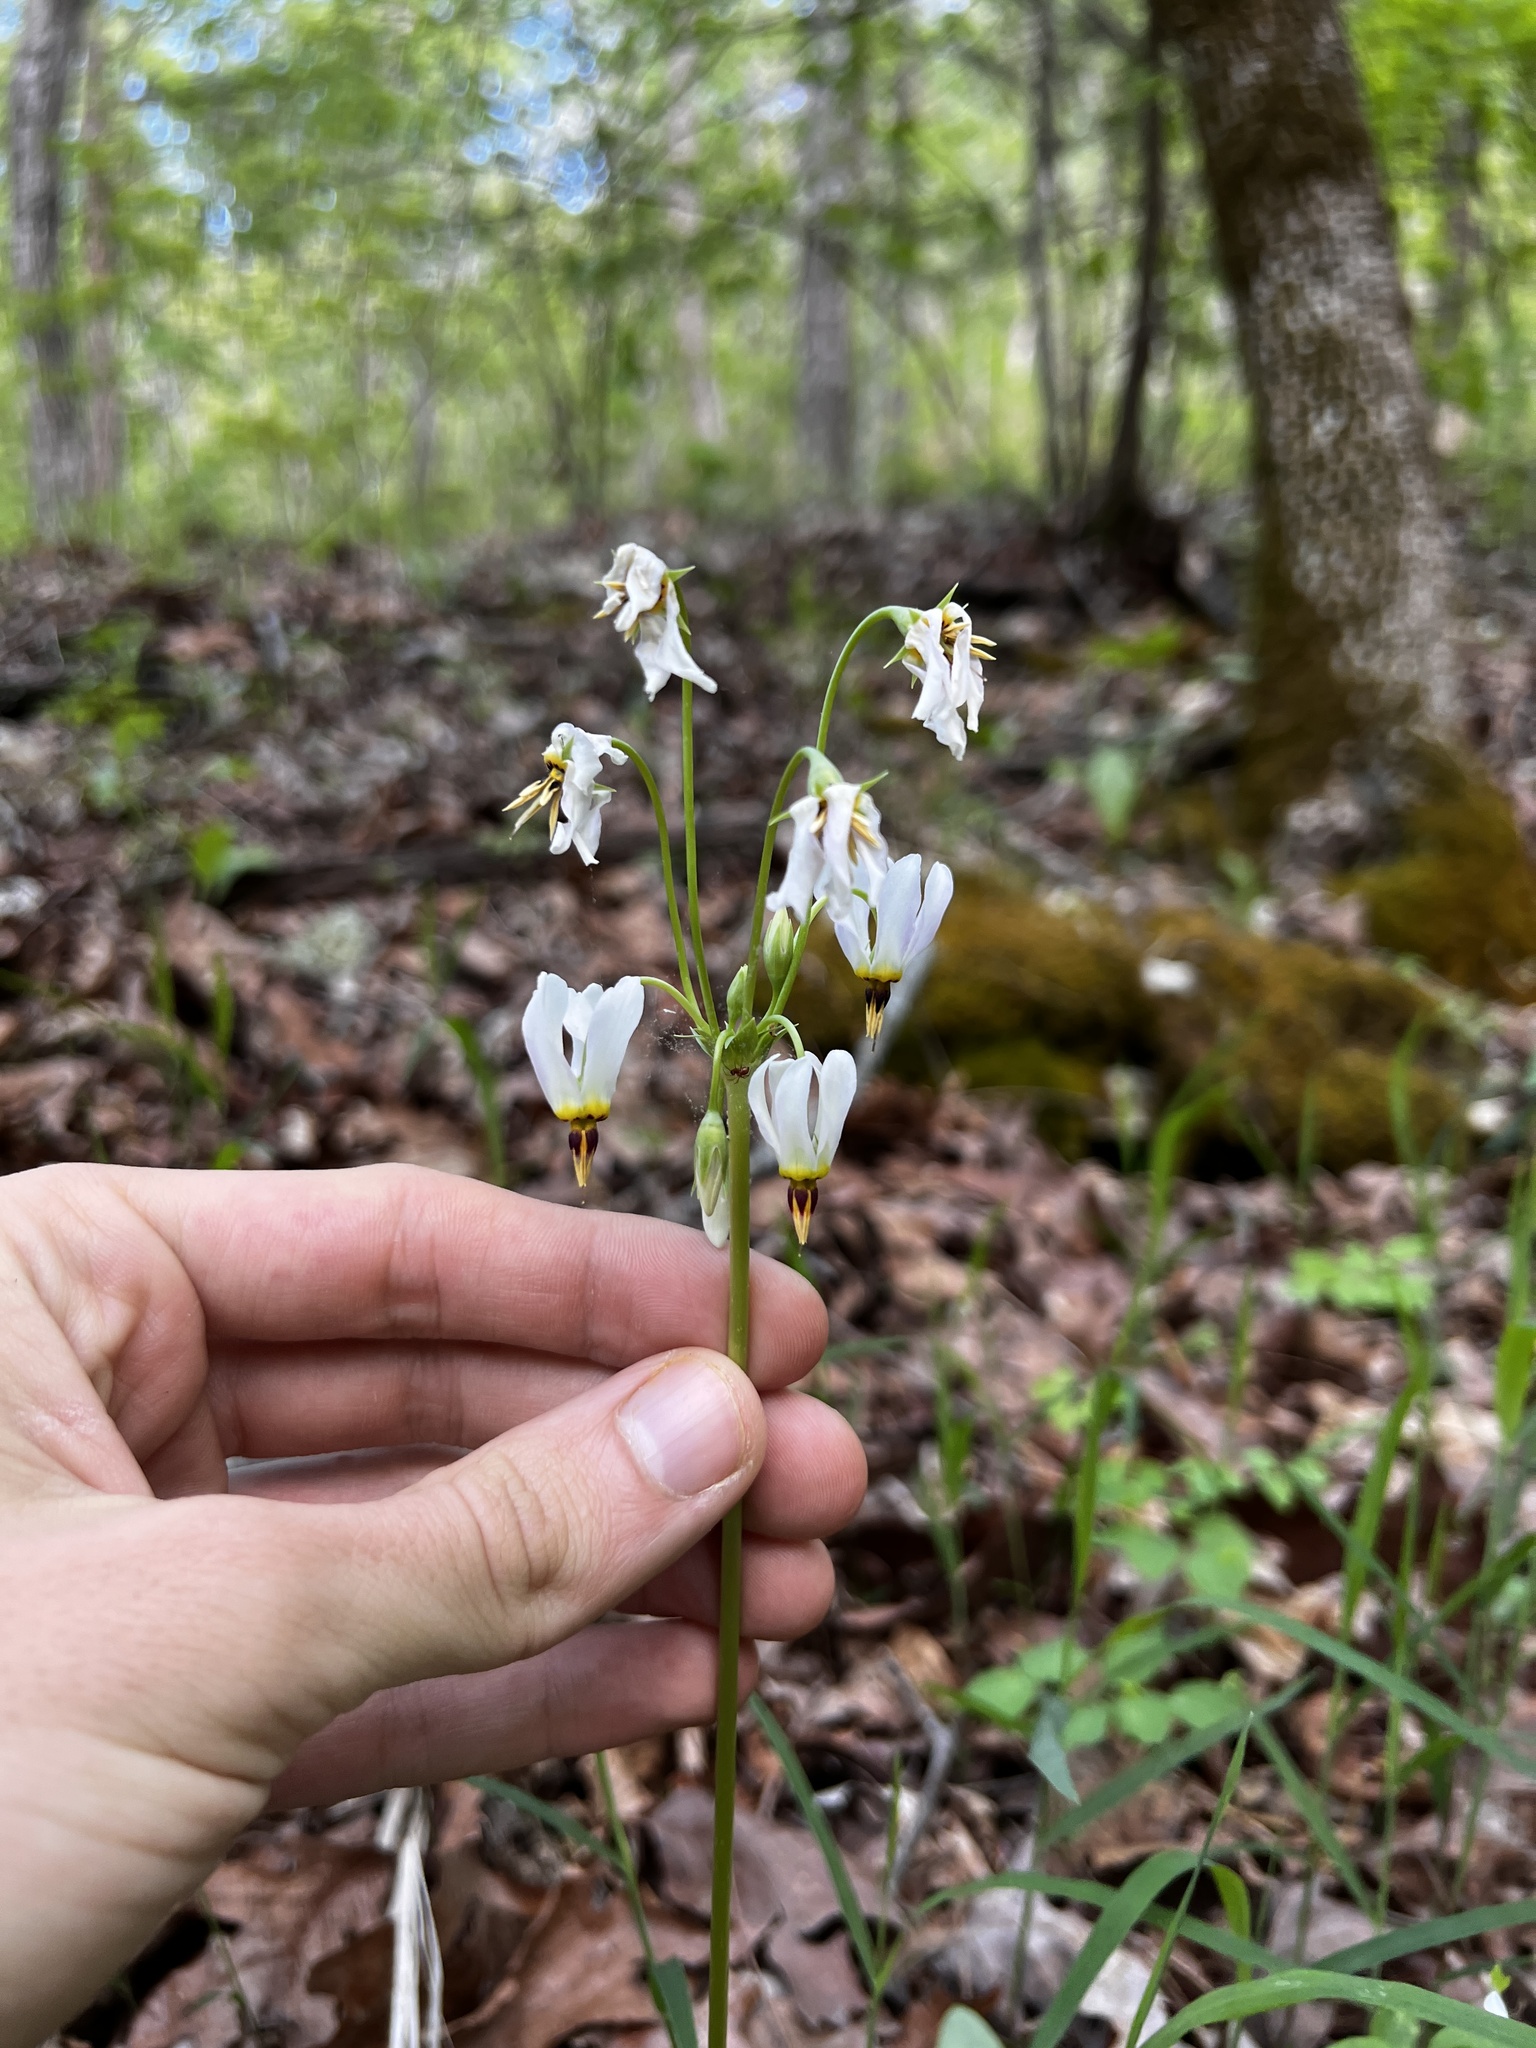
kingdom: Plantae
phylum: Tracheophyta
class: Magnoliopsida
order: Ericales
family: Primulaceae
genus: Dodecatheon
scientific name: Dodecatheon meadia
